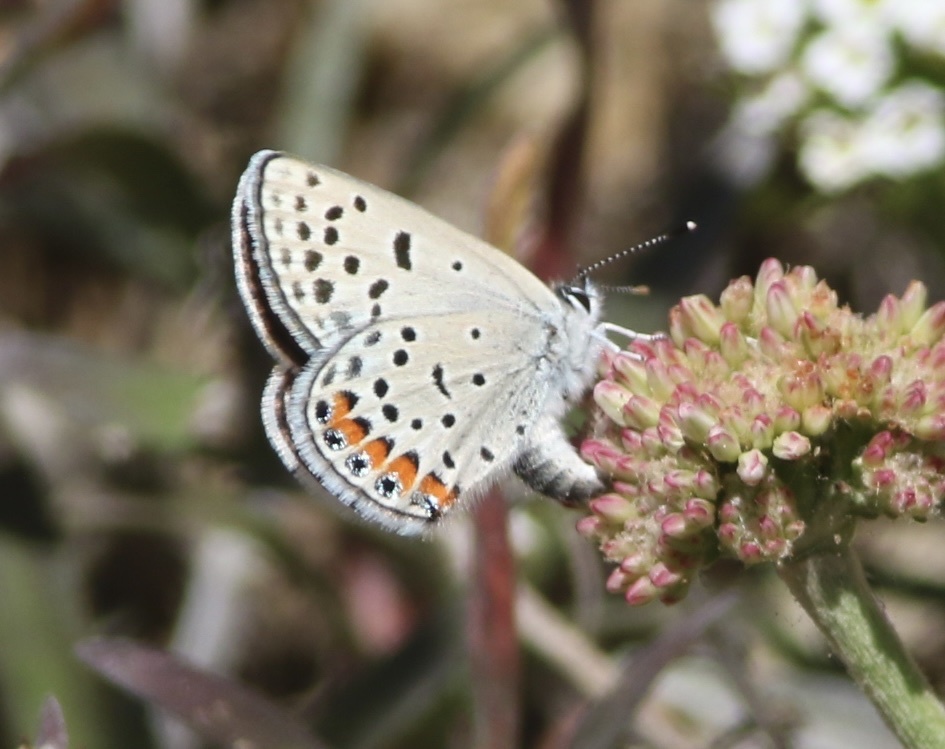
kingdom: Animalia
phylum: Arthropoda
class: Insecta
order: Lepidoptera
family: Lycaenidae
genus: Icaricia
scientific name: Icaricia acmon
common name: Acmon blue
